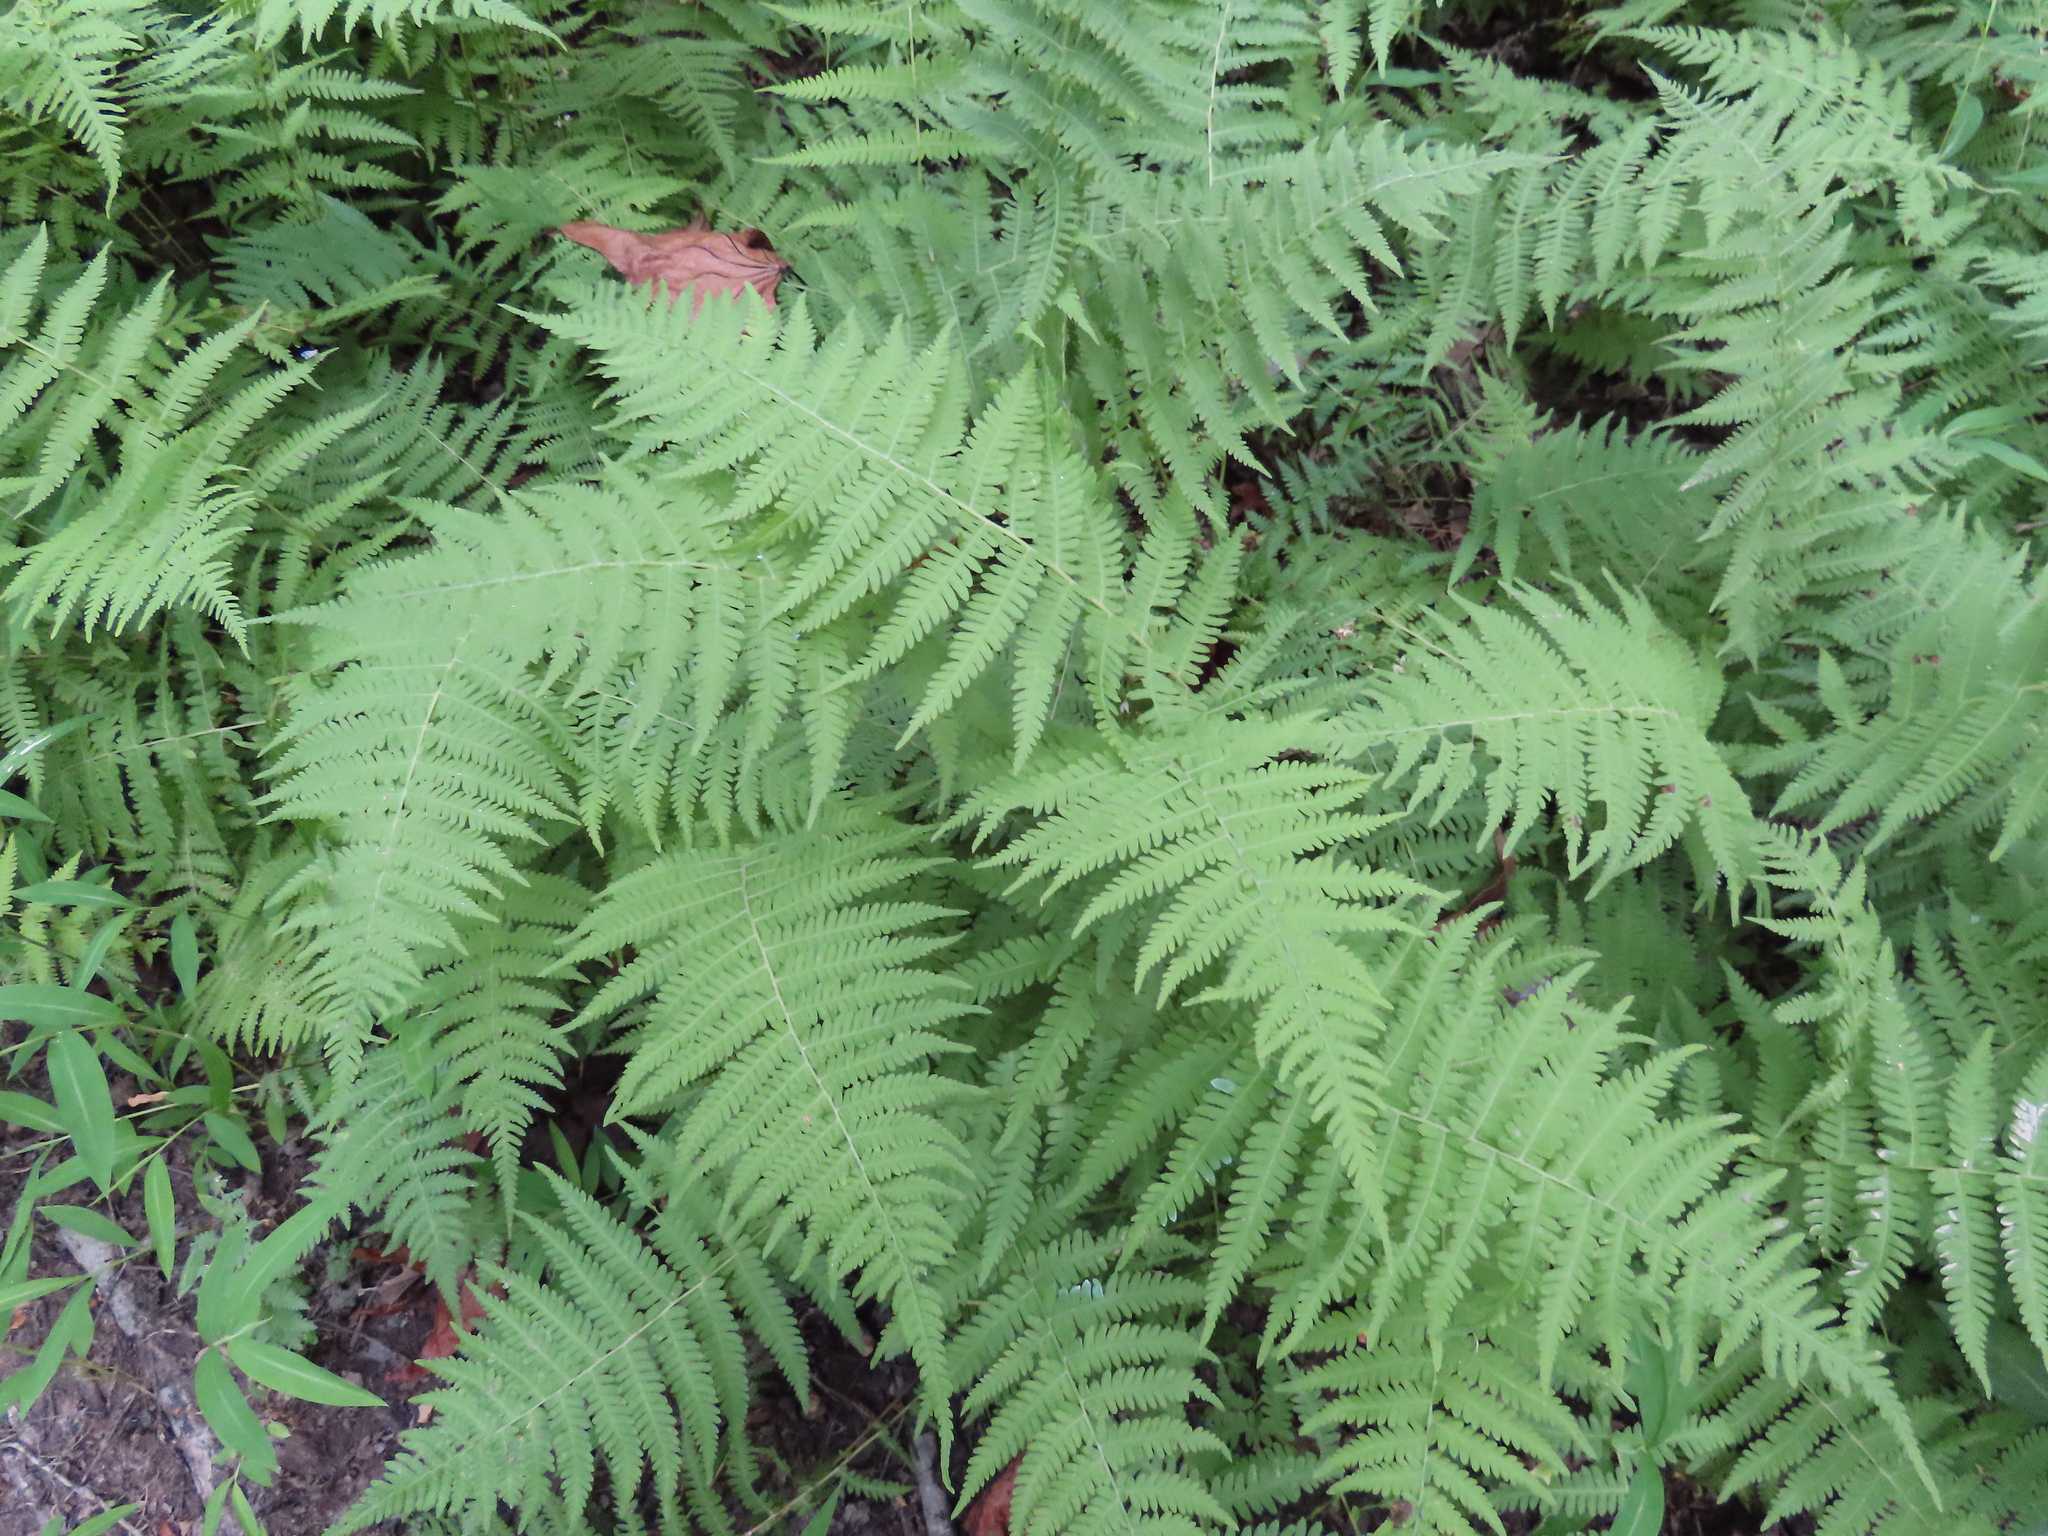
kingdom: Plantae
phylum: Tracheophyta
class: Polypodiopsida
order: Polypodiales
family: Thelypteridaceae
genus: Amauropelta
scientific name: Amauropelta noveboracensis
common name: New york fern
